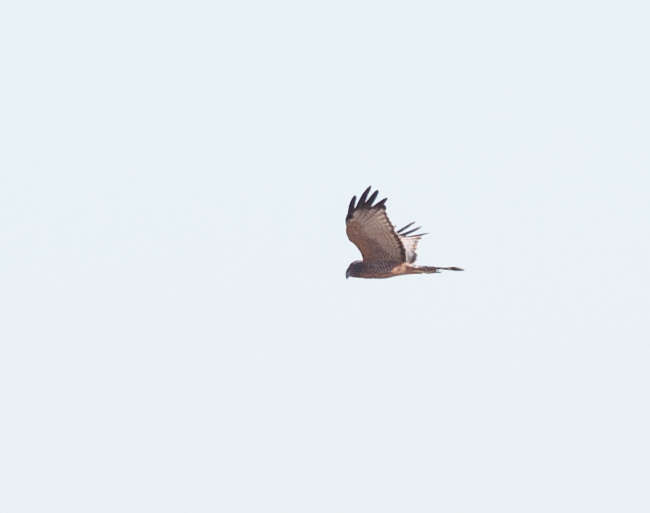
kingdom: Animalia
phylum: Chordata
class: Aves
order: Accipitriformes
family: Accipitridae
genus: Circus
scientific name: Circus assimilis
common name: Spotted harrier
